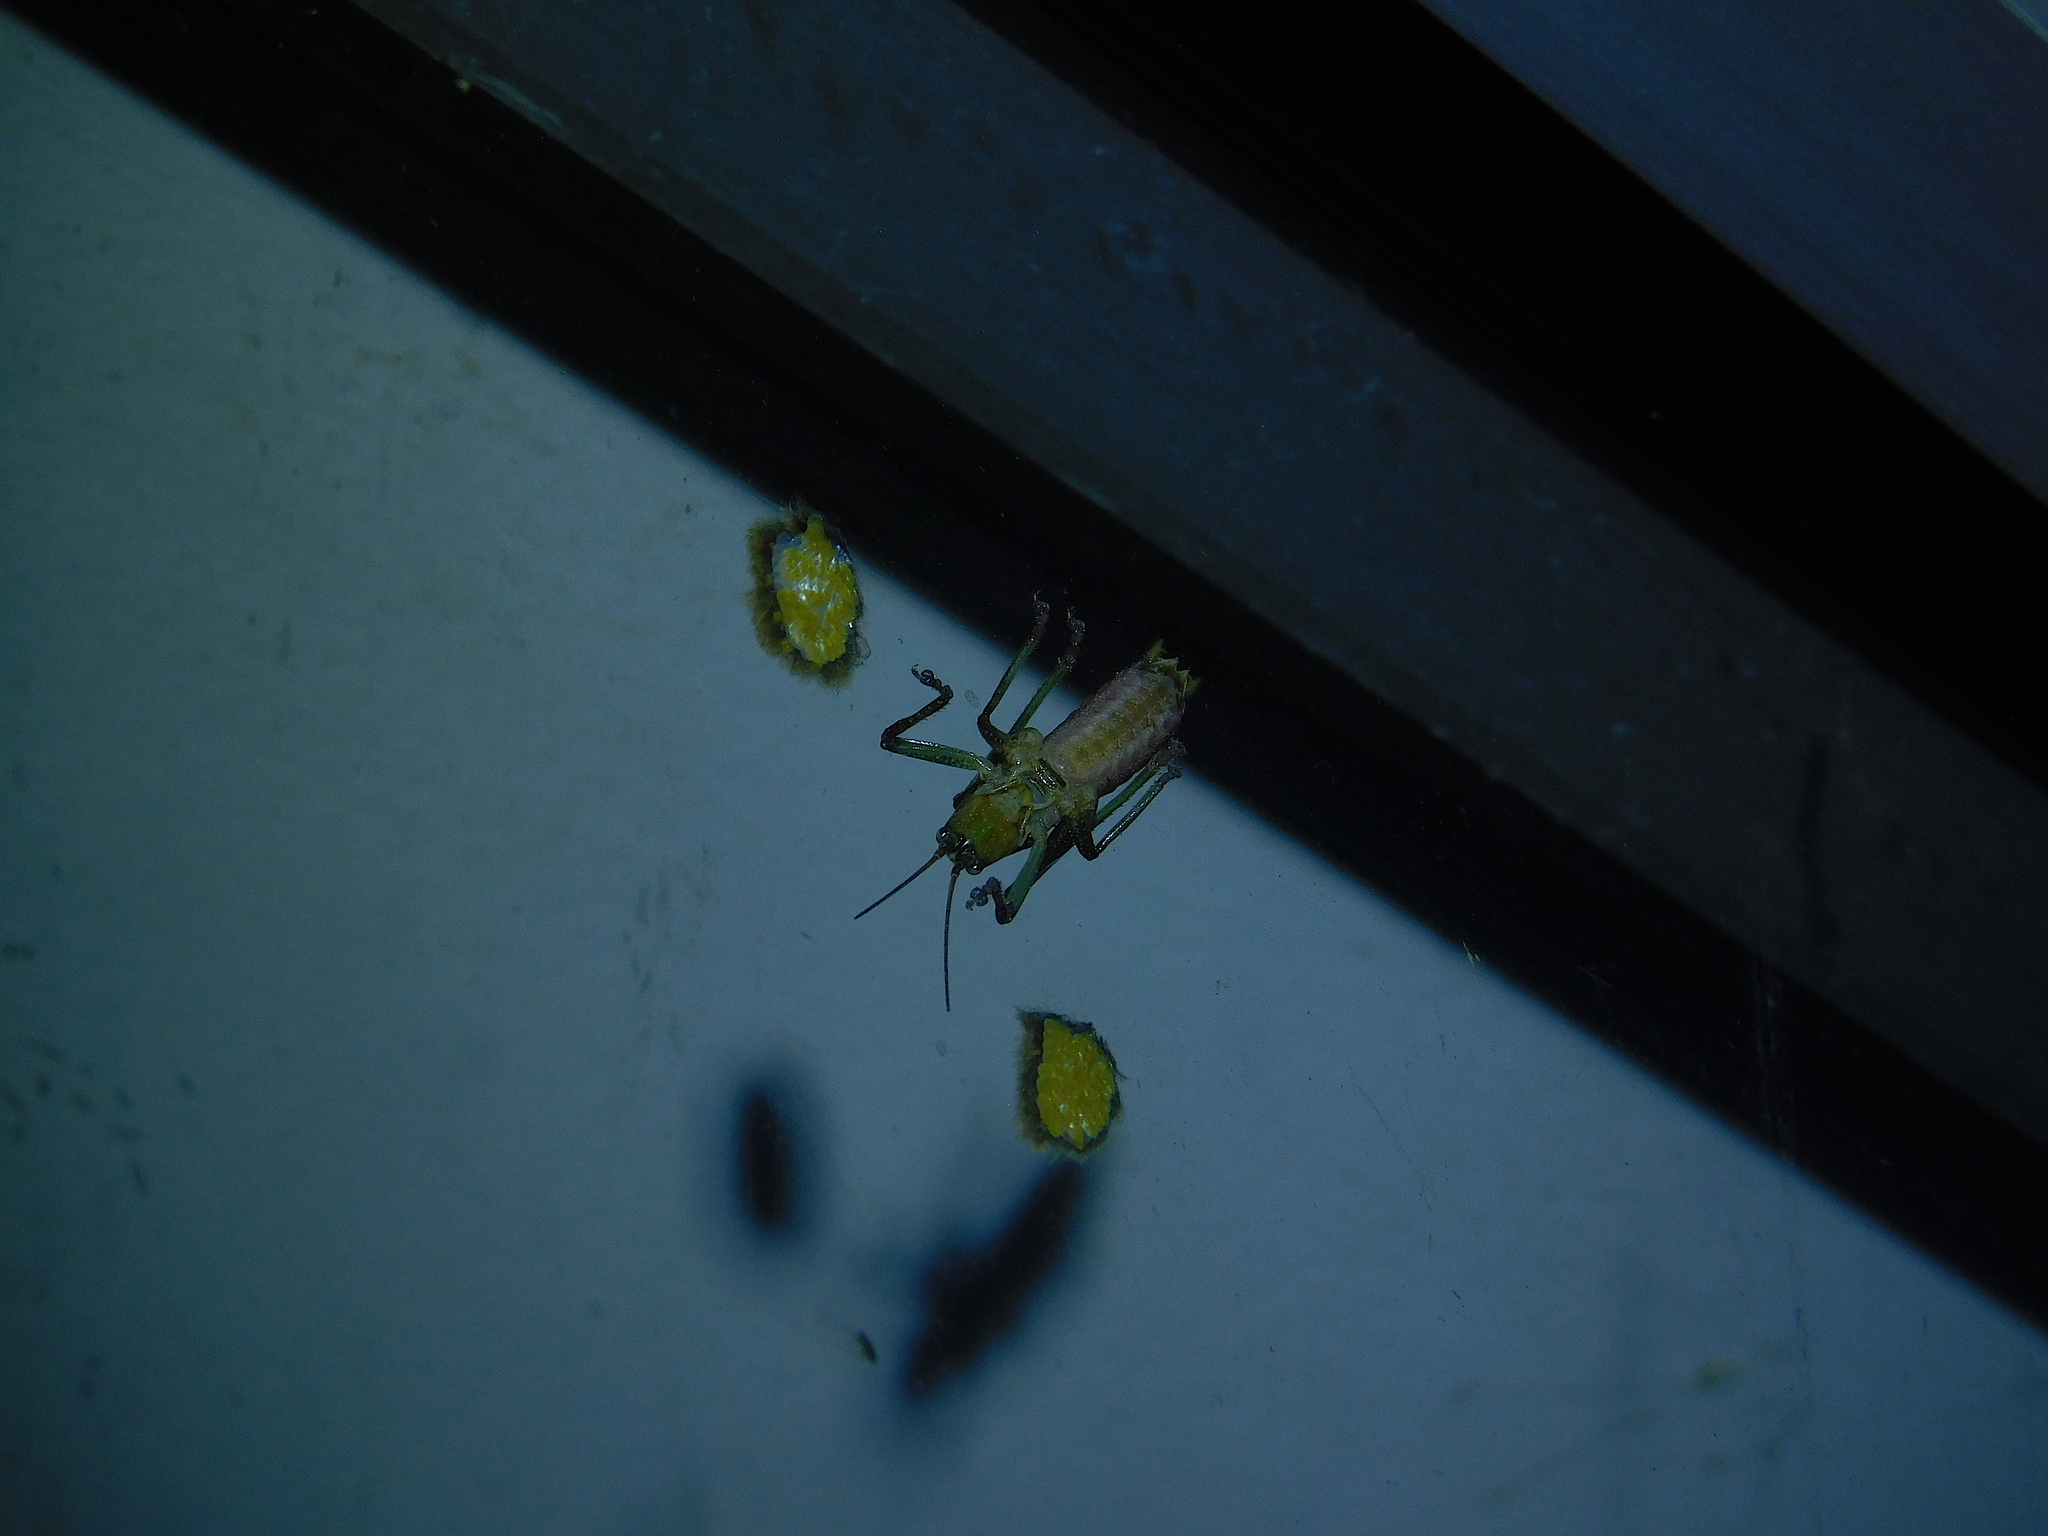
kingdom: Animalia
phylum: Arthropoda
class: Insecta
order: Orthoptera
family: Tettigoniidae
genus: Coptaspis
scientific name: Coptaspis lateralis
